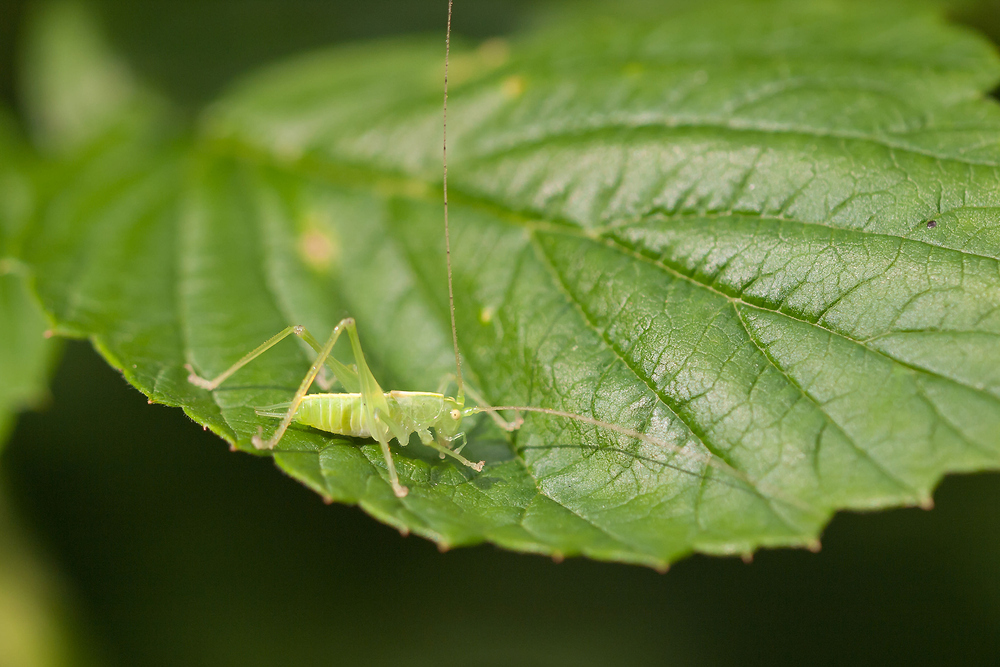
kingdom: Animalia
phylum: Arthropoda
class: Insecta
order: Orthoptera
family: Tettigoniidae
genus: Meconema
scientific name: Meconema meridionale
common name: Southern oak bush-cricket
